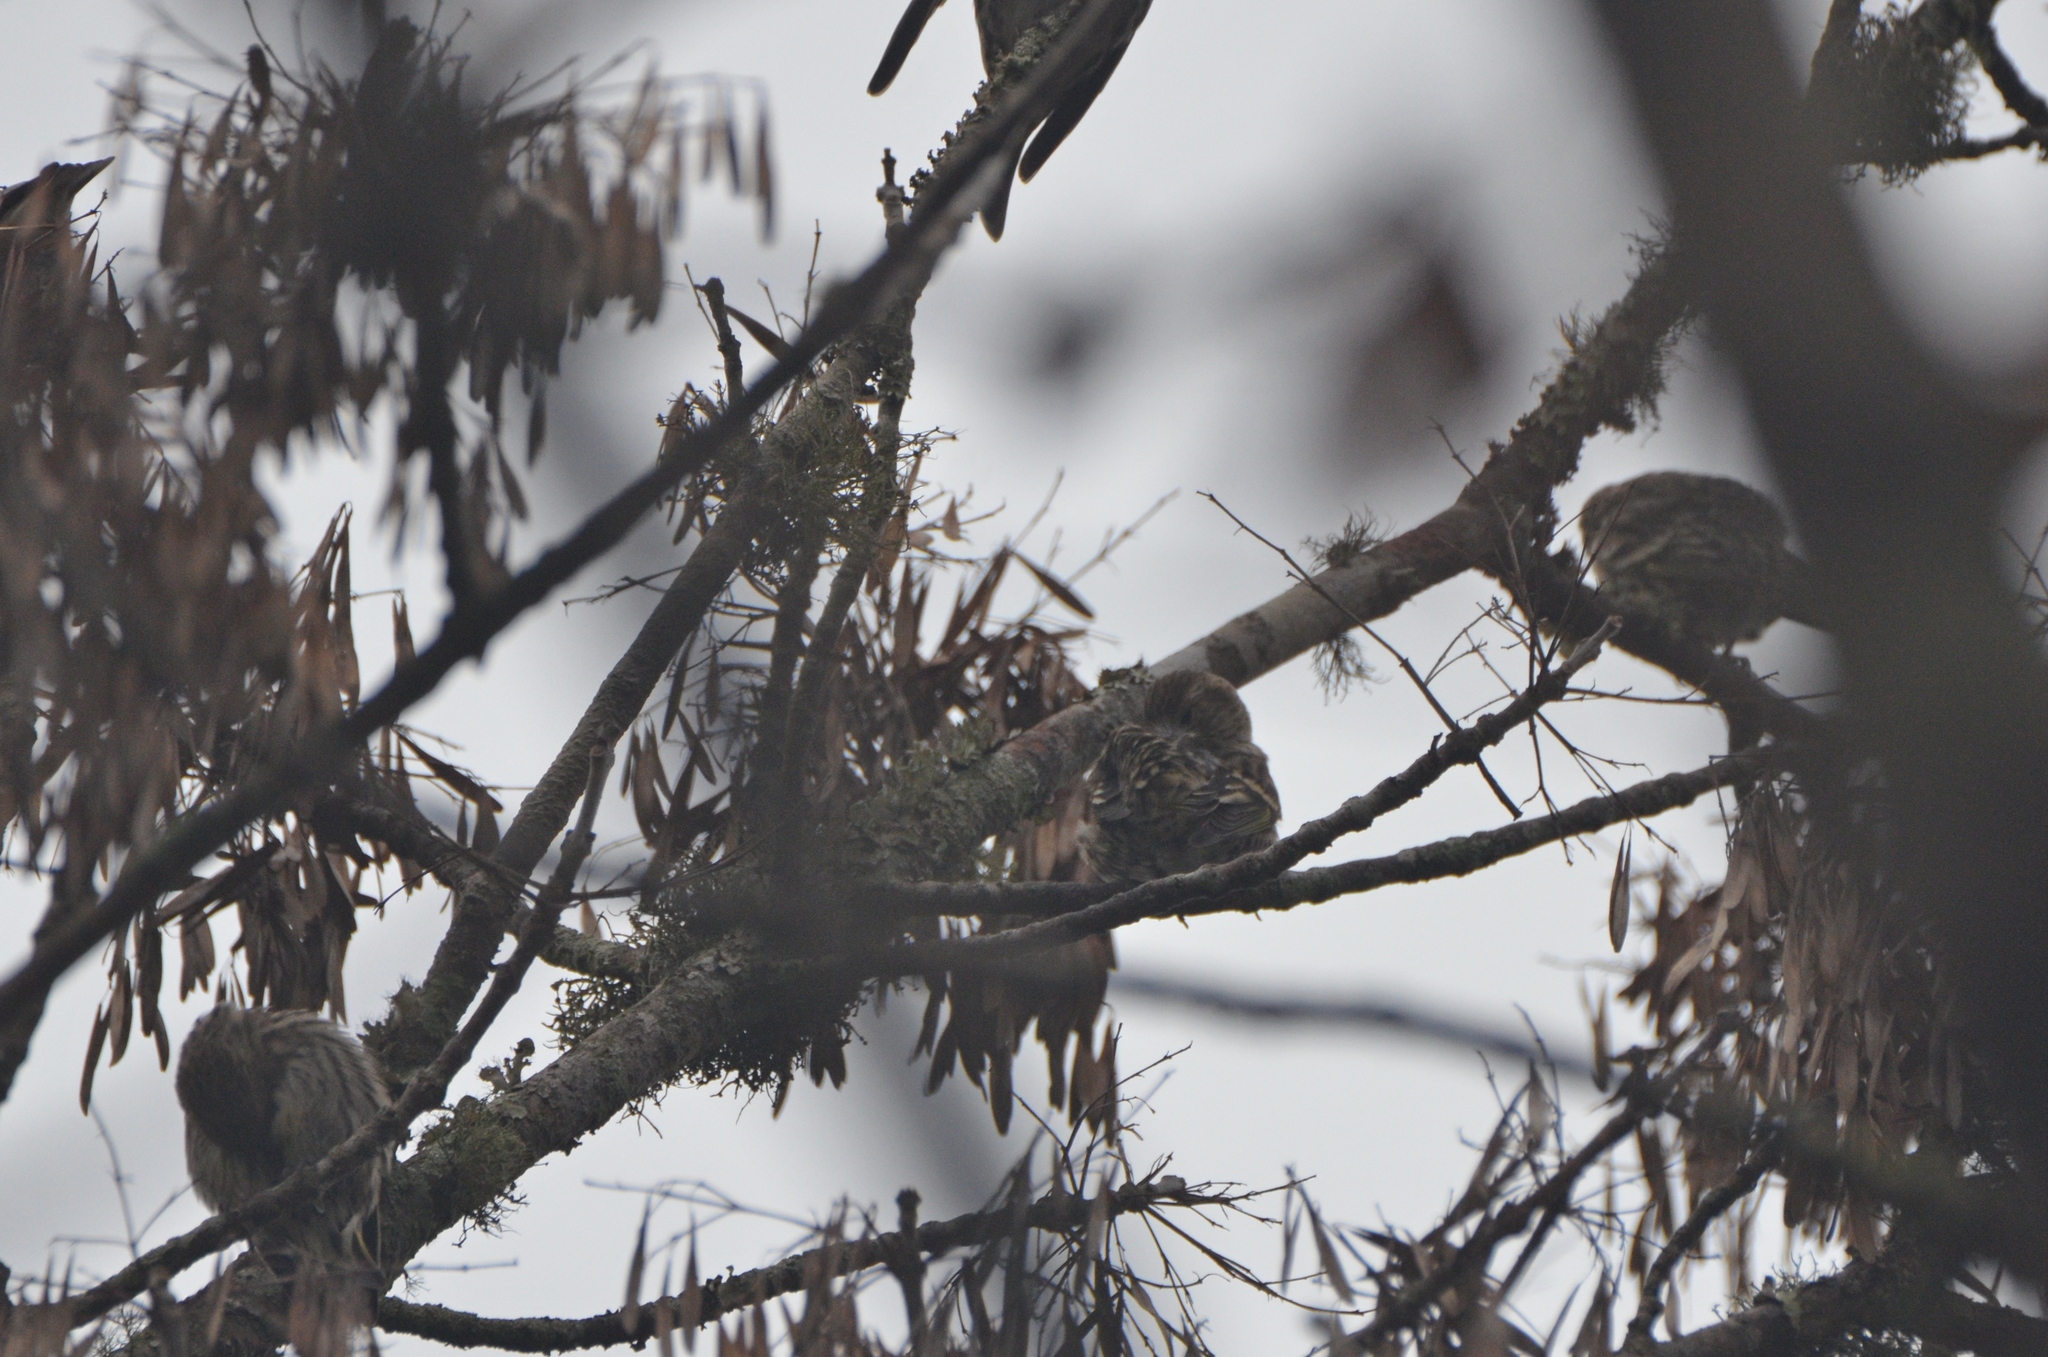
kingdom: Animalia
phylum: Chordata
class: Aves
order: Passeriformes
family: Fringillidae
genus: Spinus
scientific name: Spinus pinus
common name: Pine siskin
